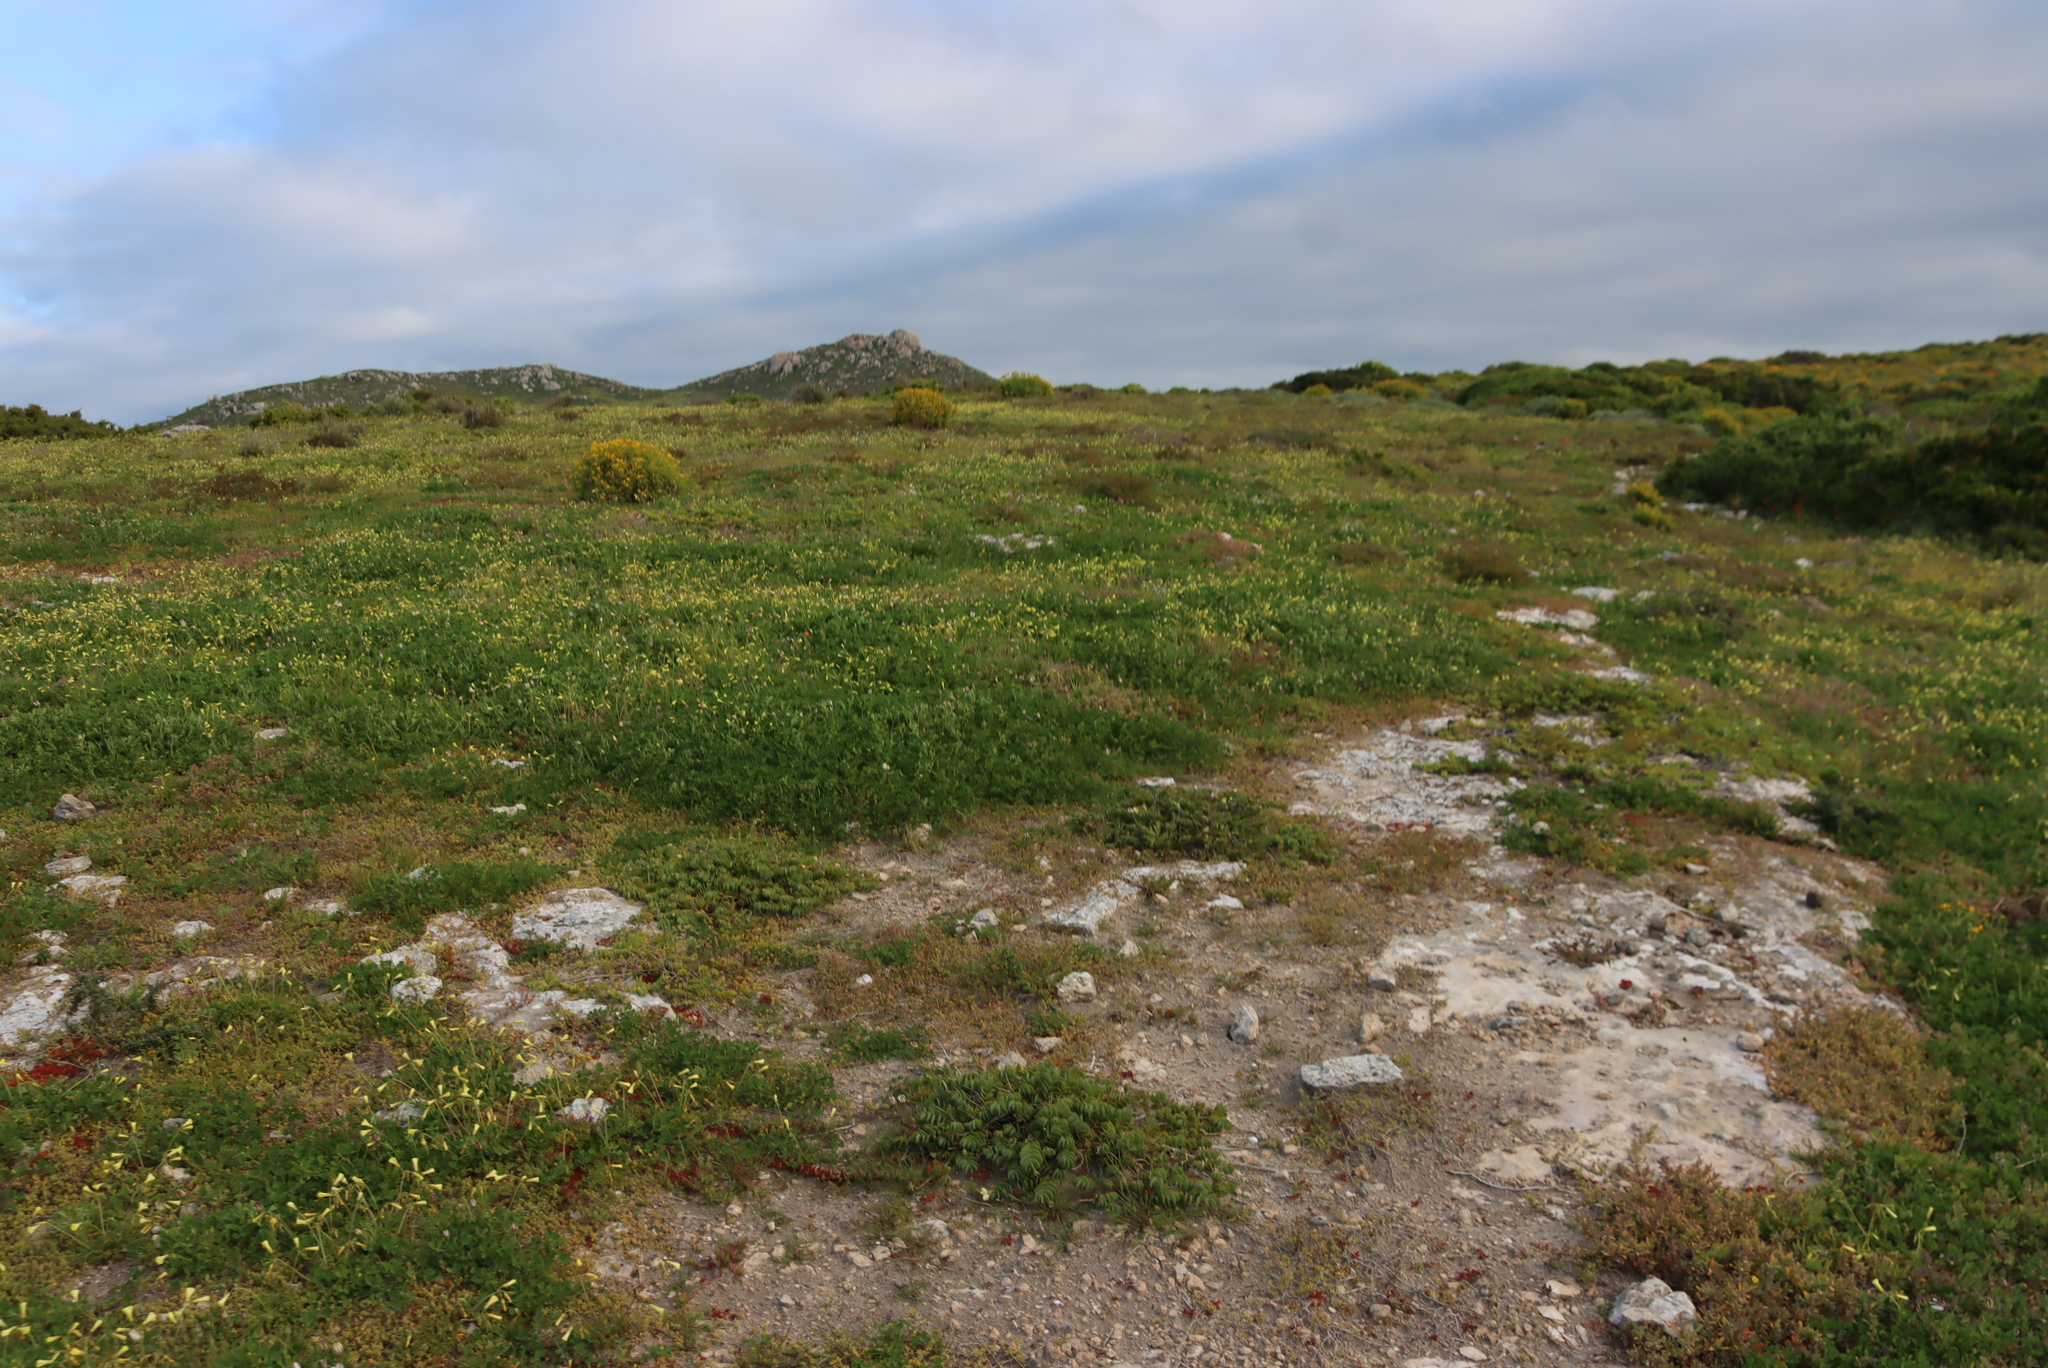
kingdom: Plantae
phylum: Tracheophyta
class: Magnoliopsida
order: Oxalidales
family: Oxalidaceae
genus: Oxalis
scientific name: Oxalis pes-caprae
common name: Bermuda-buttercup
